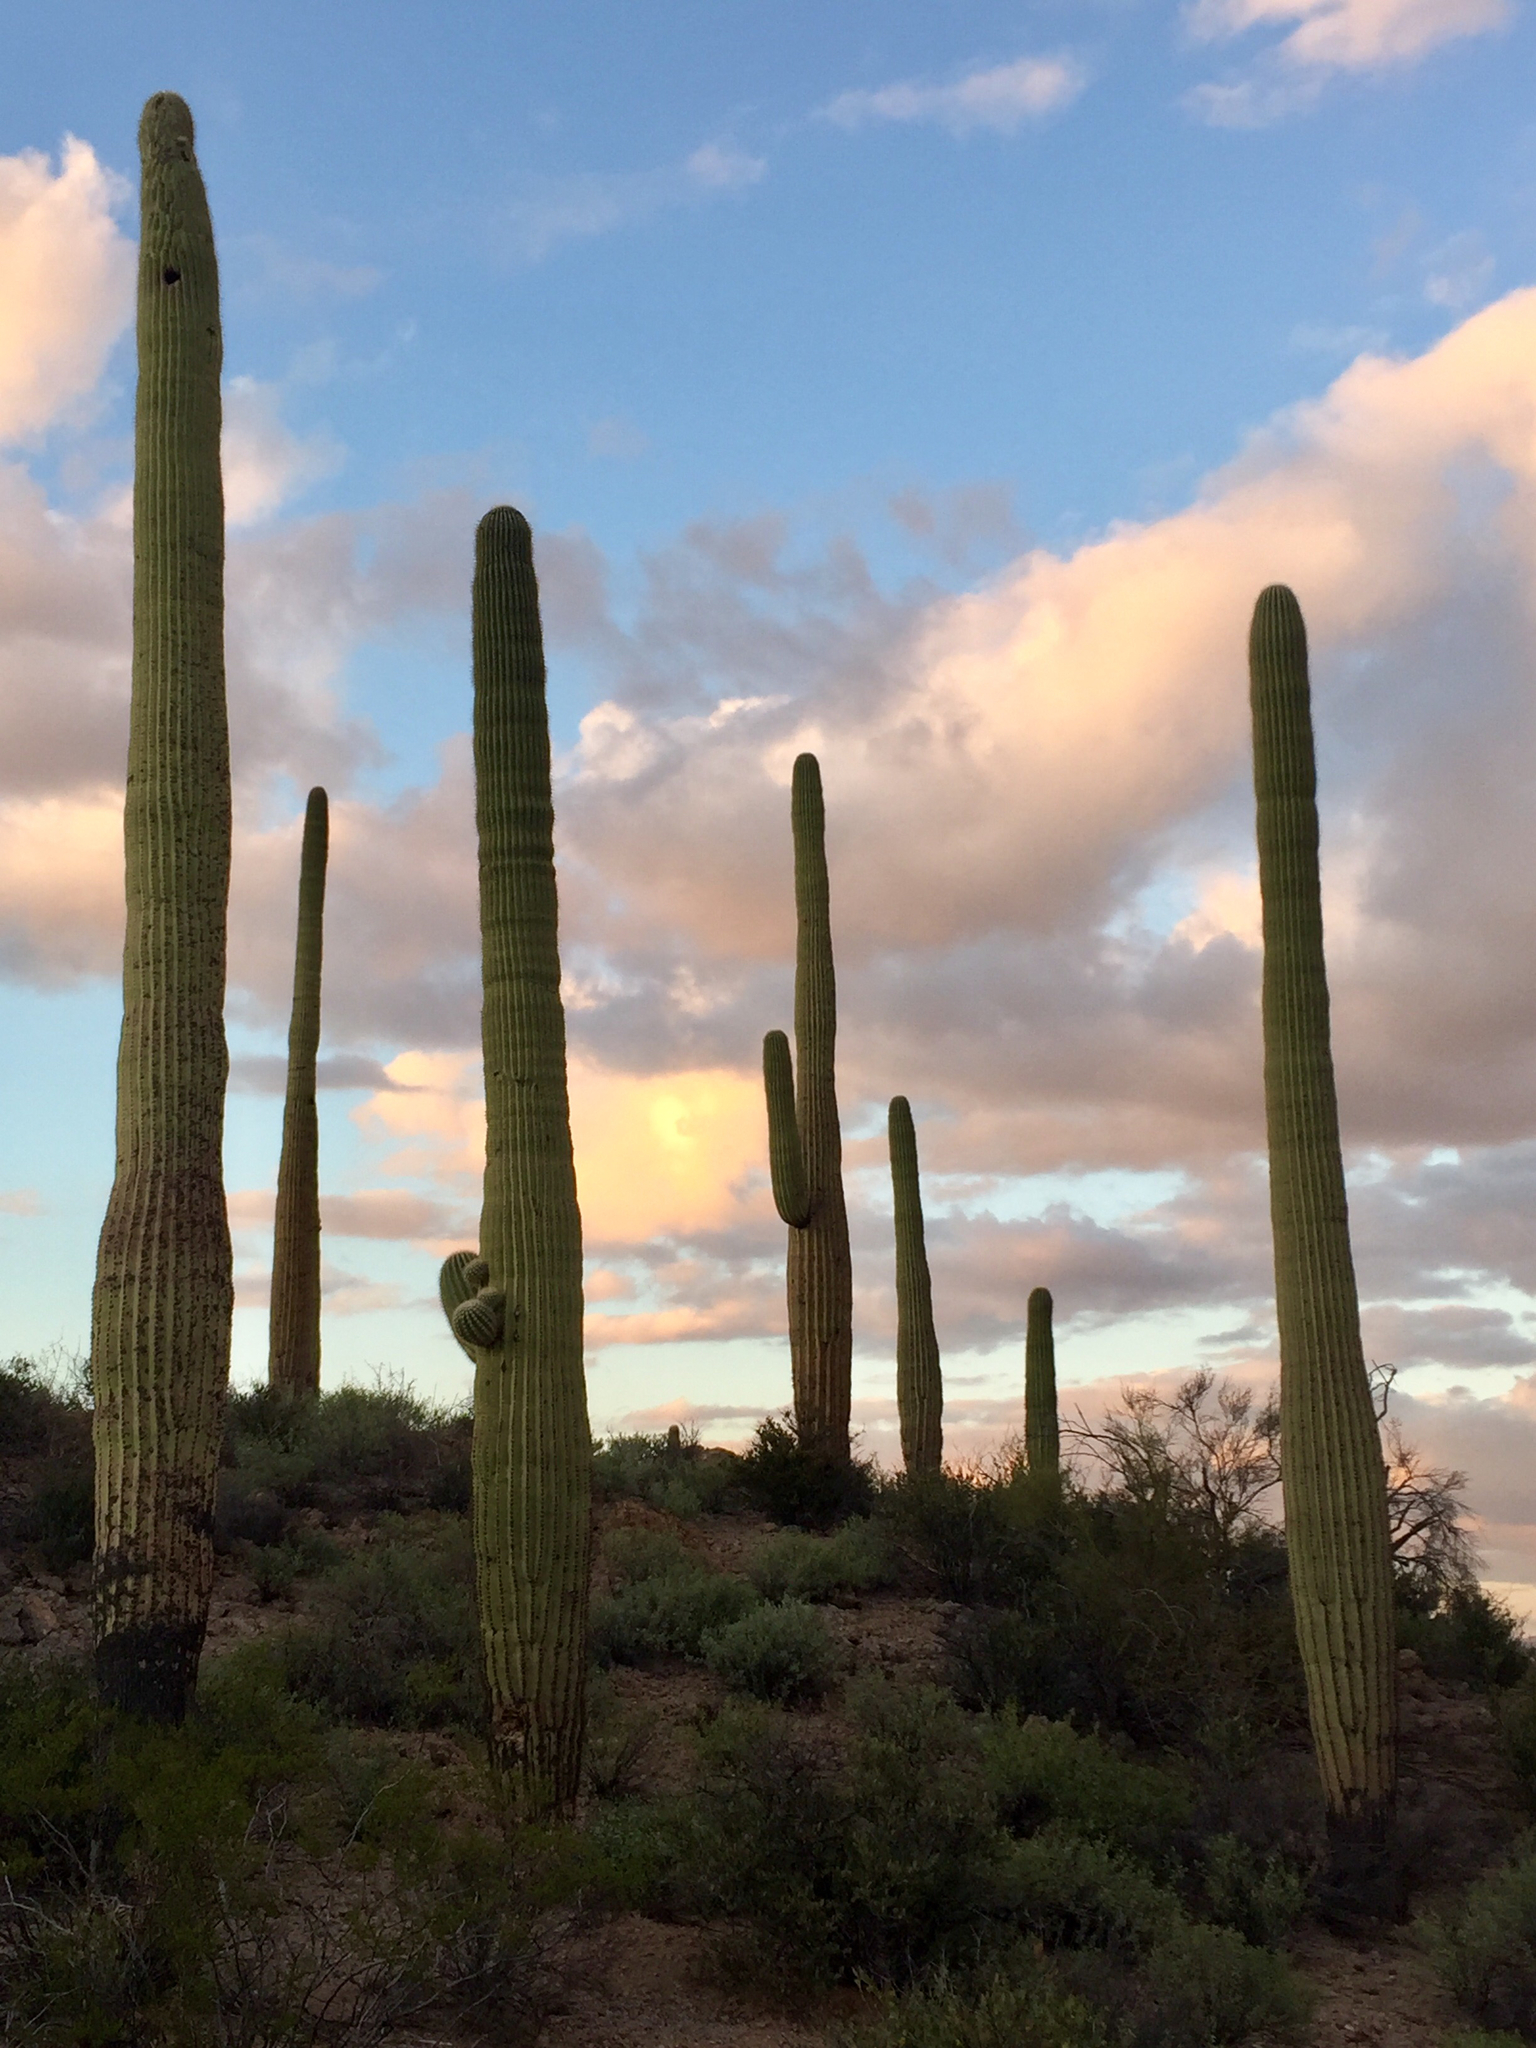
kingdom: Plantae
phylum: Tracheophyta
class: Magnoliopsida
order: Caryophyllales
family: Cactaceae
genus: Carnegiea
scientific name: Carnegiea gigantea
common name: Saguaro
